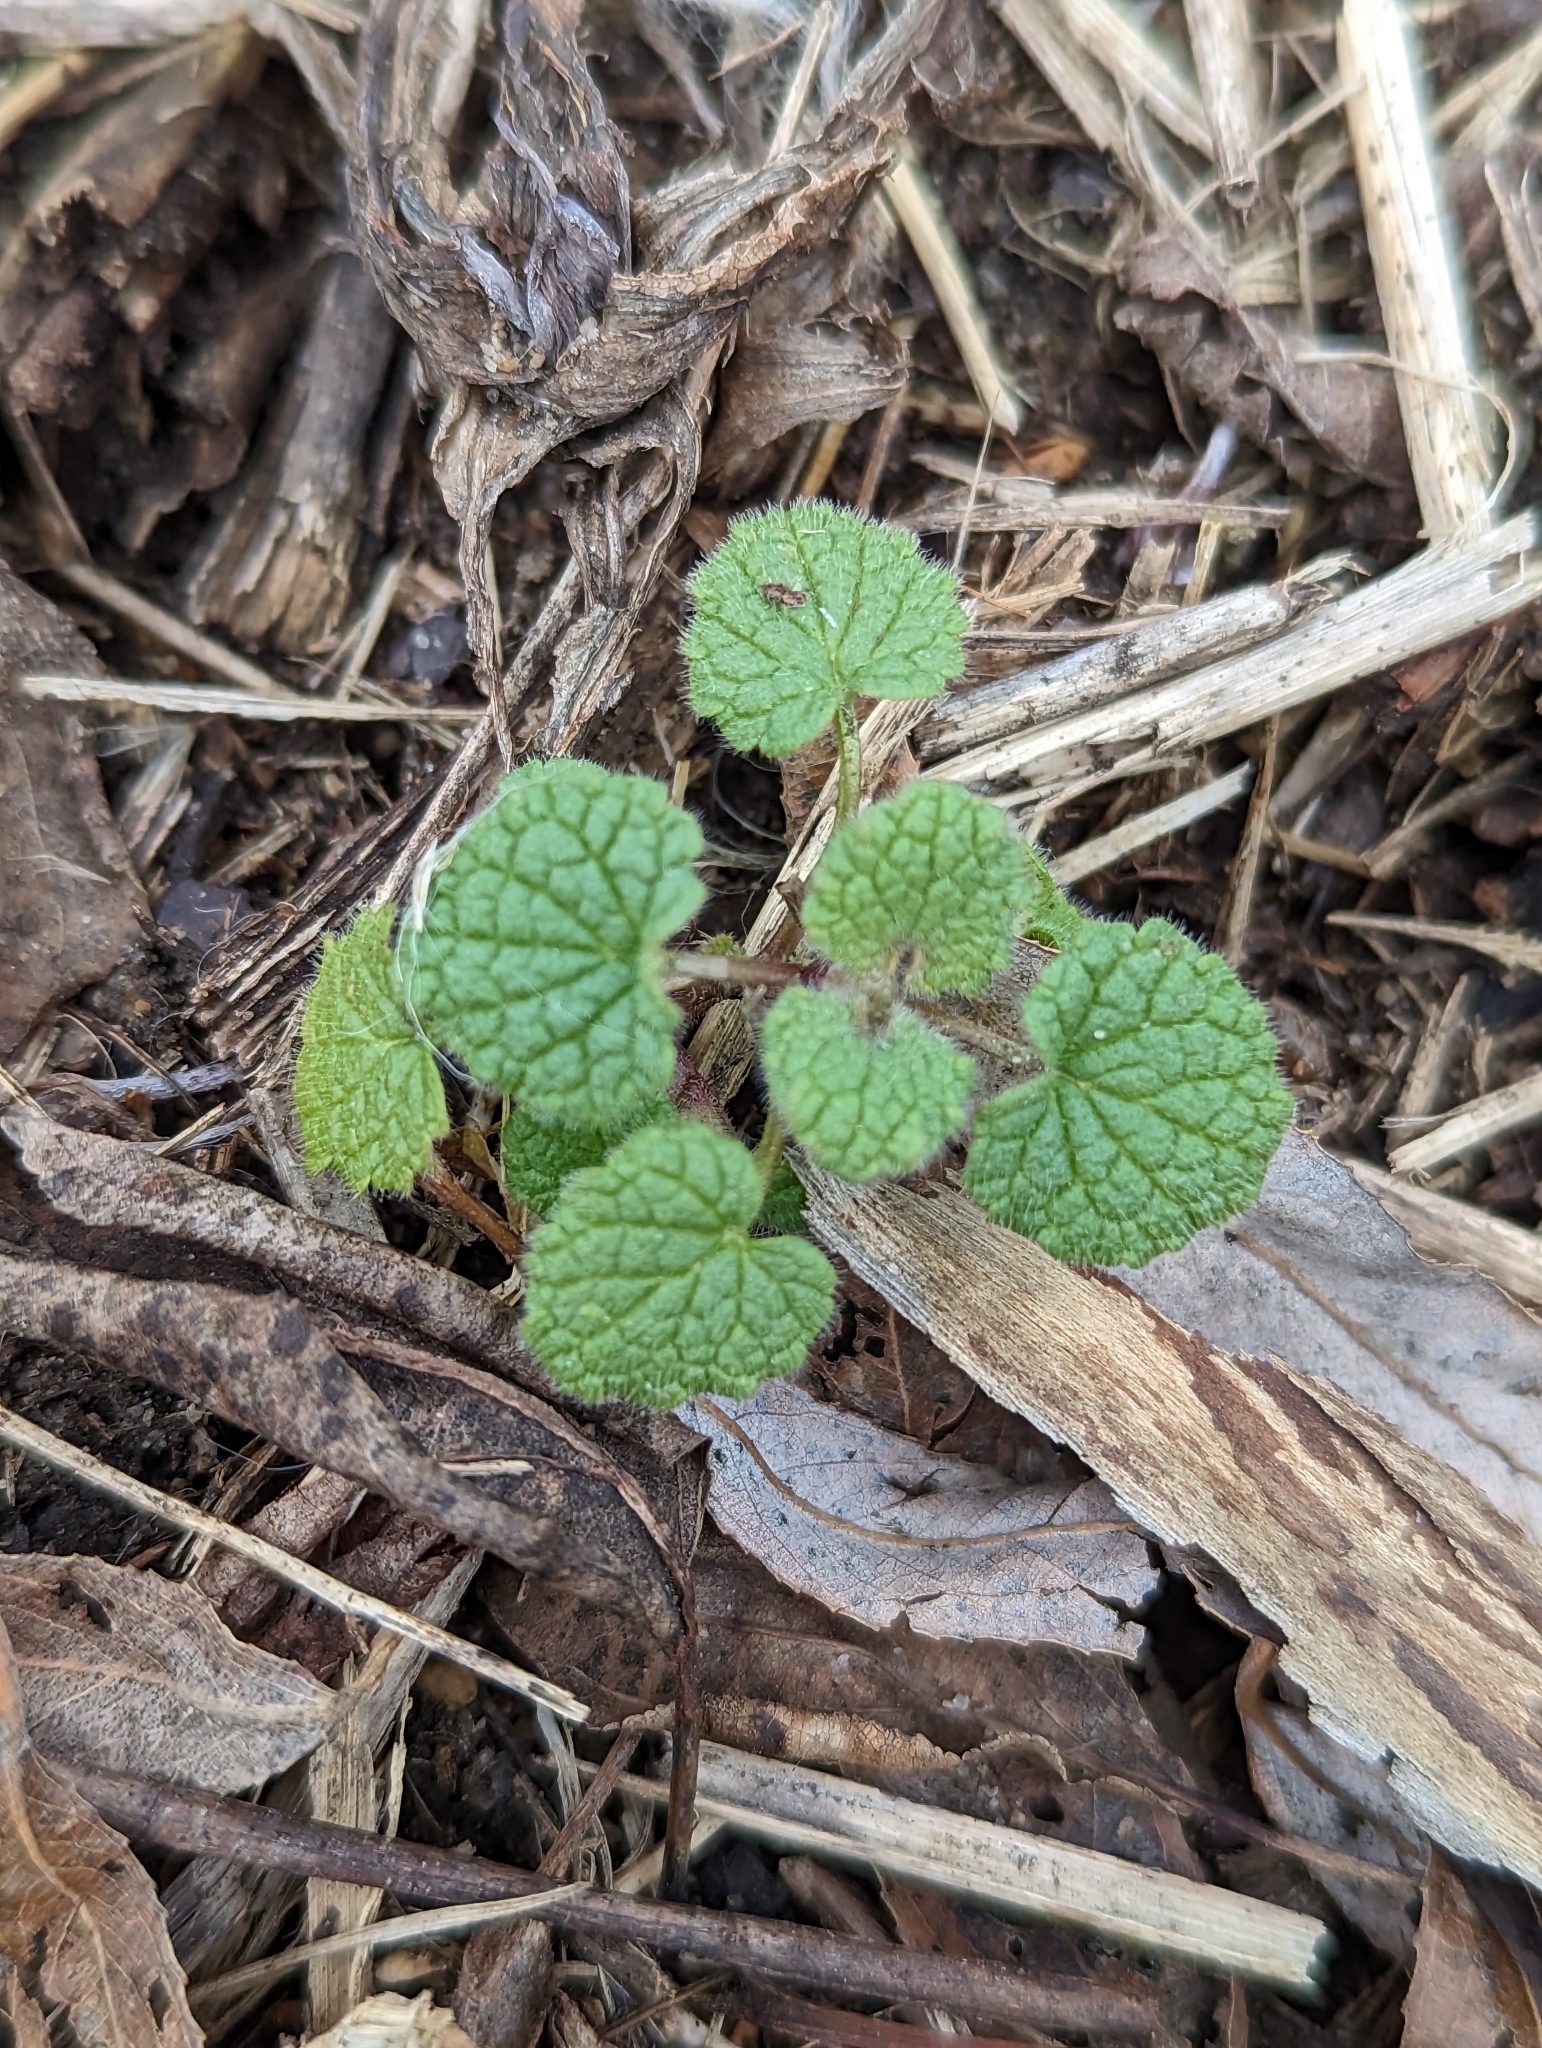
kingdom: Plantae
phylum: Tracheophyta
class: Magnoliopsida
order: Lamiales
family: Lamiaceae
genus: Lamium
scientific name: Lamium purpureum
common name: Red dead-nettle
